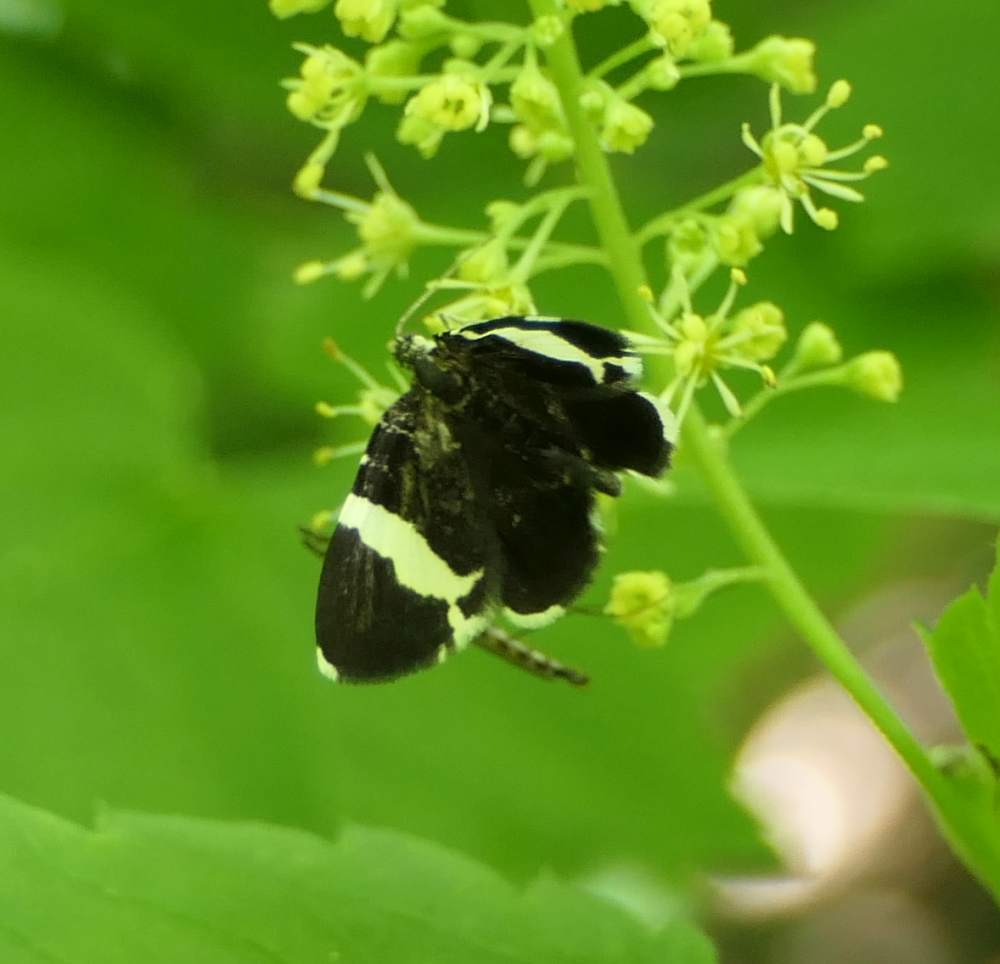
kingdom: Animalia
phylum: Arthropoda
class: Insecta
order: Lepidoptera
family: Geometridae
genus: Trichodezia
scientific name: Trichodezia albovittata
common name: White striped black
